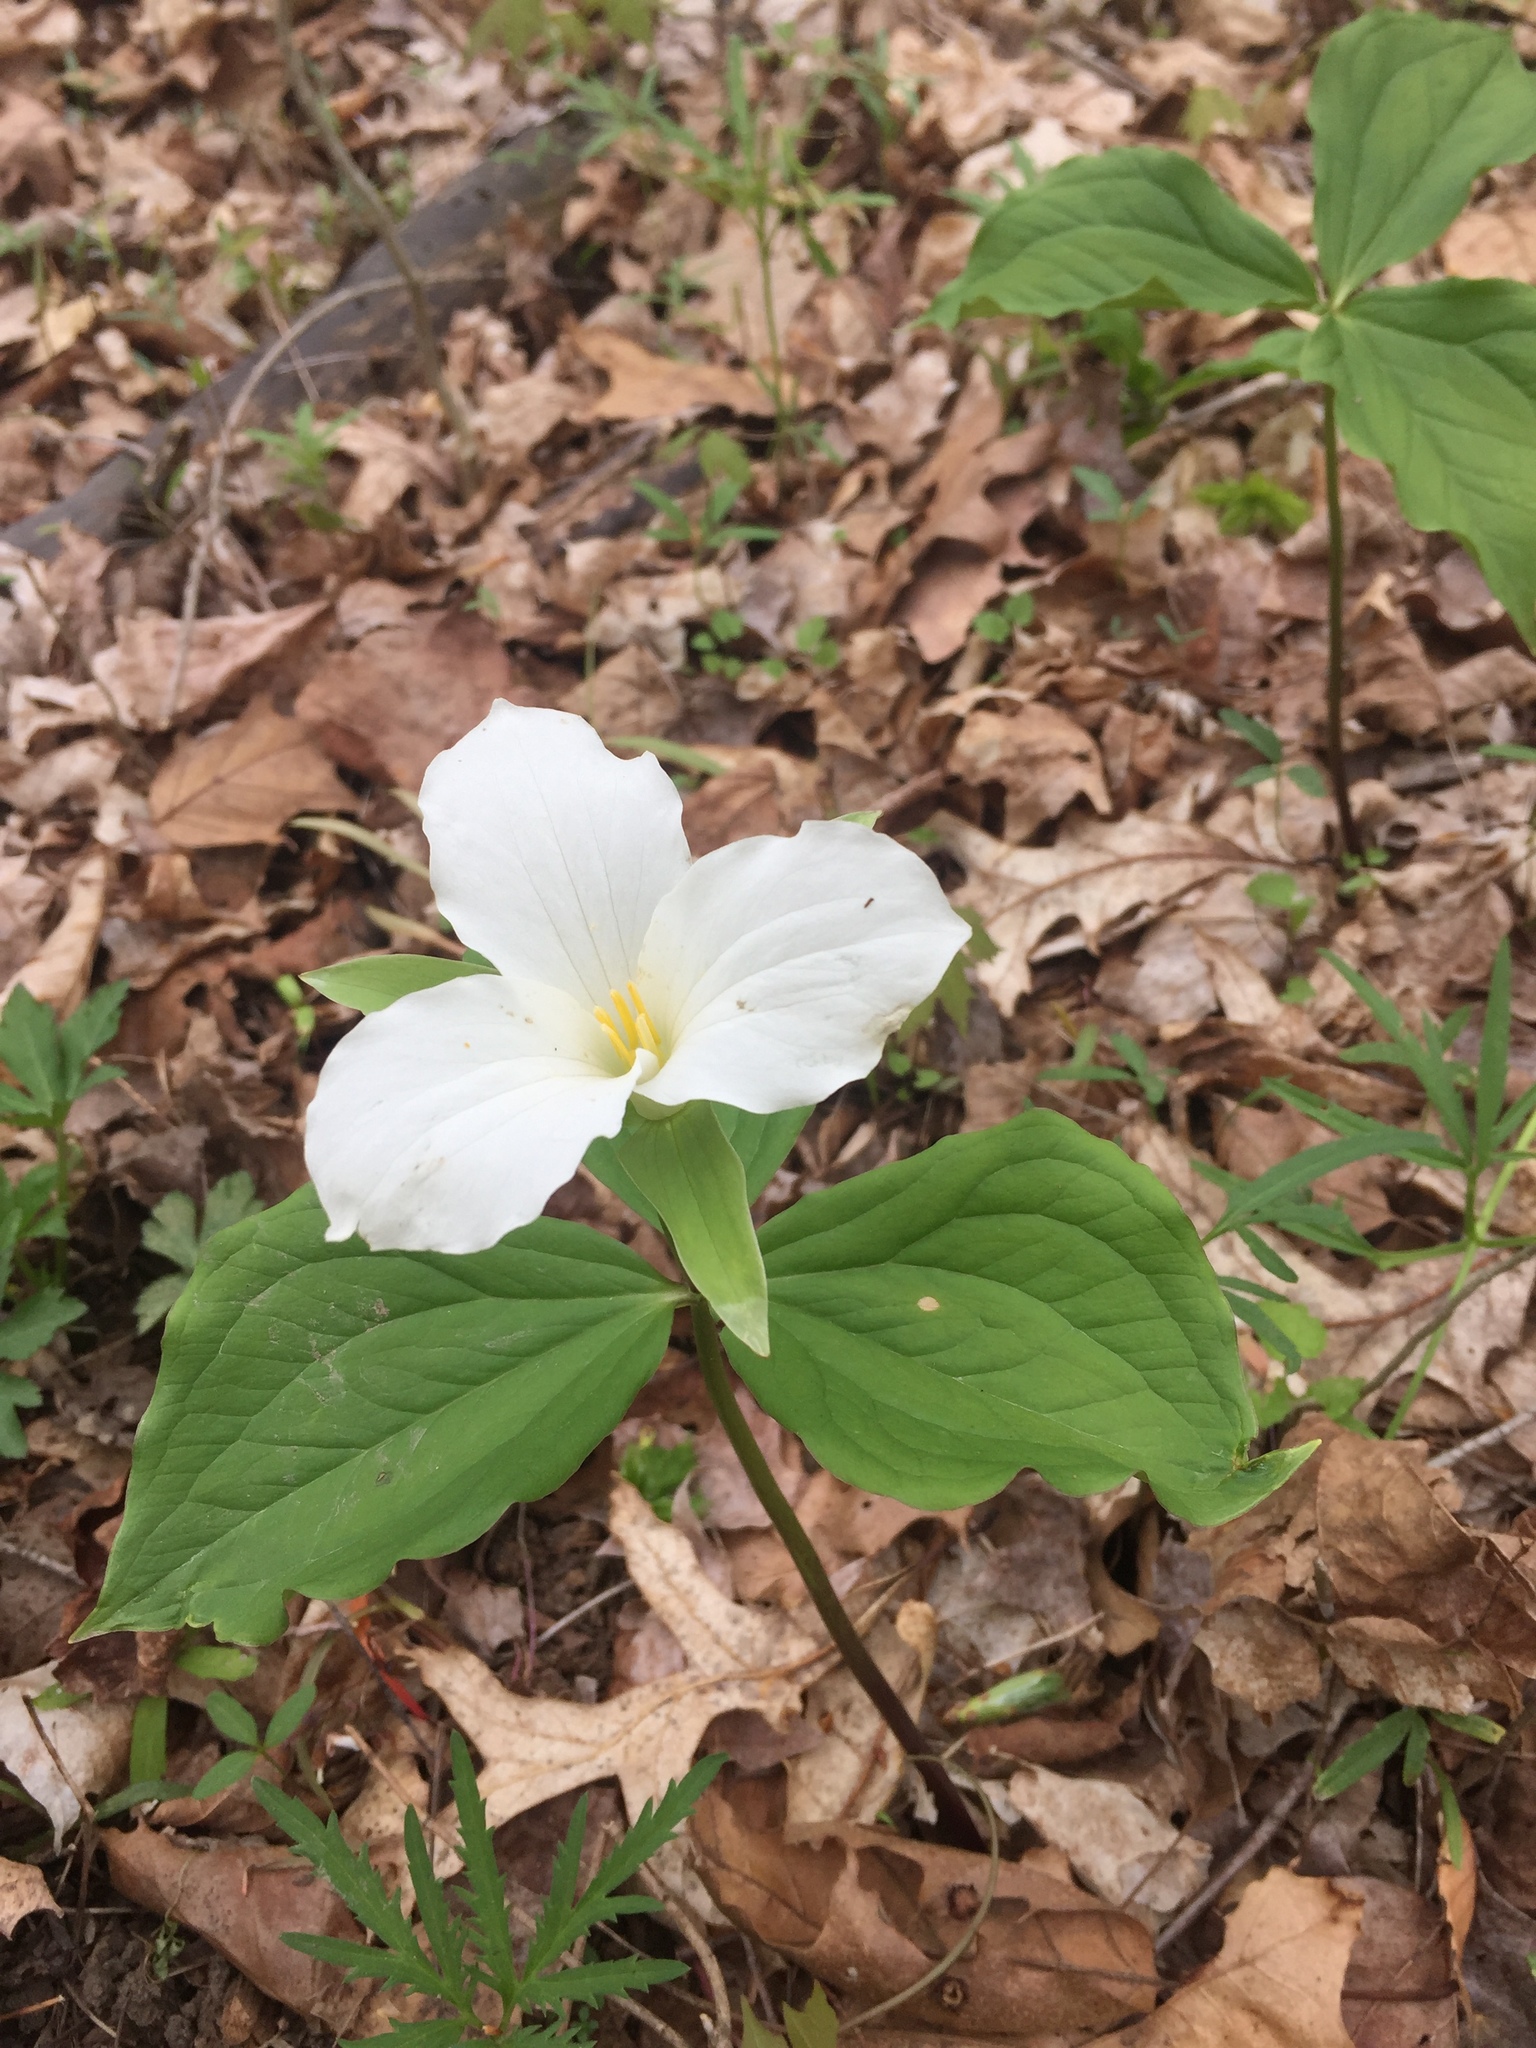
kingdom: Plantae
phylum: Tracheophyta
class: Liliopsida
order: Liliales
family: Melanthiaceae
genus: Trillium
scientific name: Trillium grandiflorum
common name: Great white trillium
